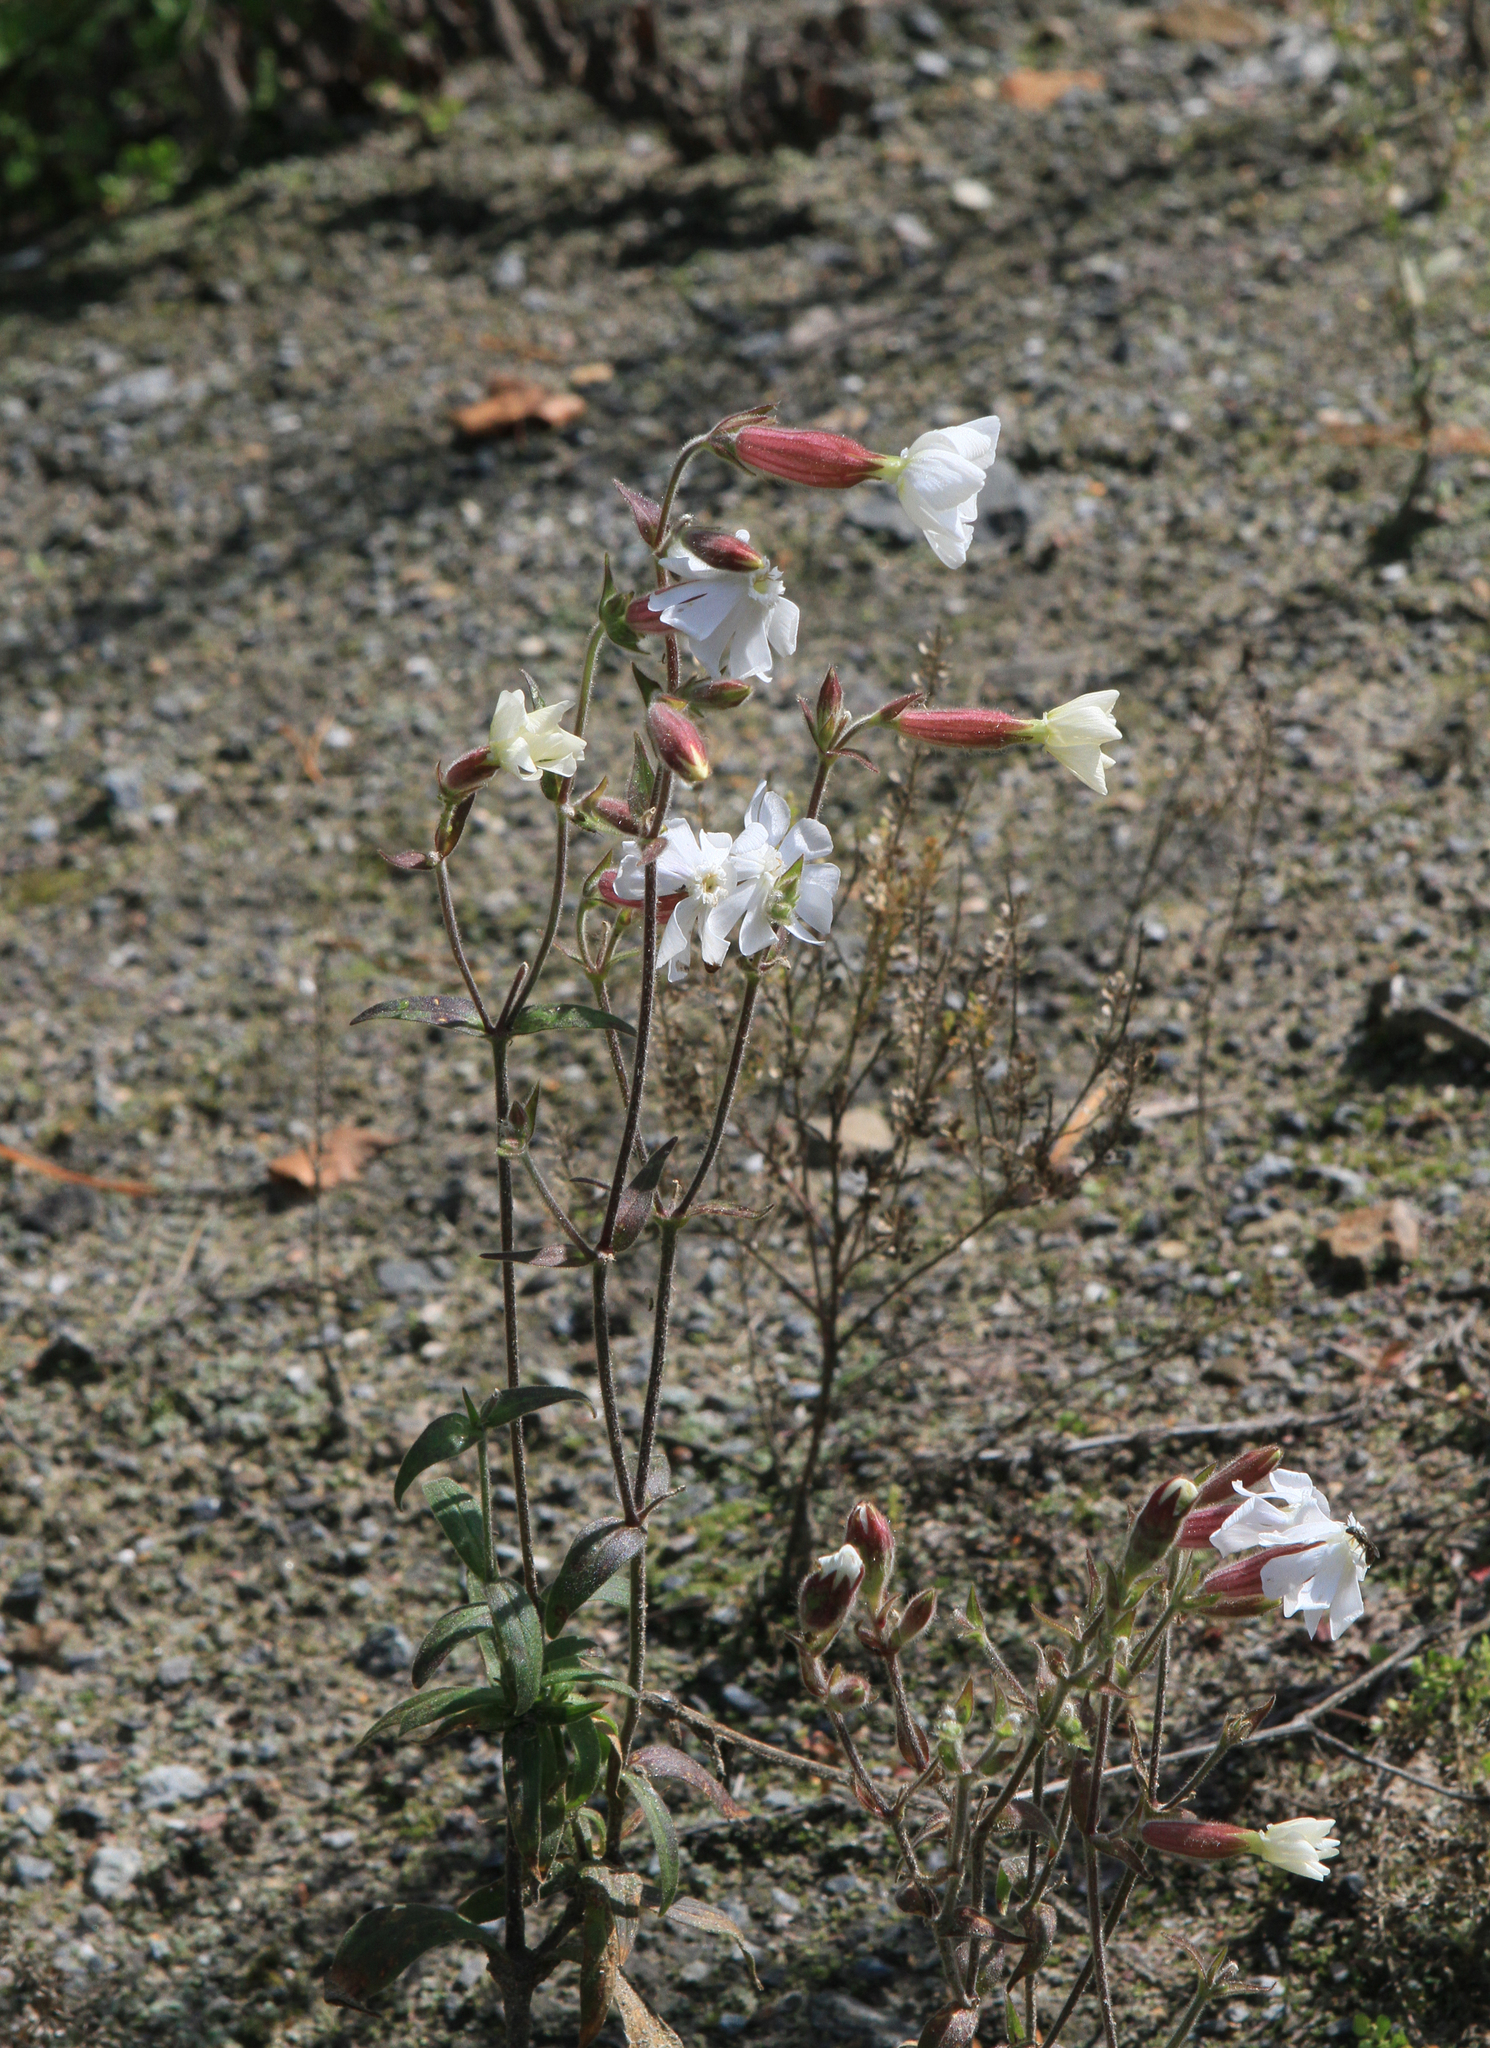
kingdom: Plantae
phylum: Tracheophyta
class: Magnoliopsida
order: Caryophyllales
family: Caryophyllaceae
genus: Silene
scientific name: Silene latifolia
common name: White campion
